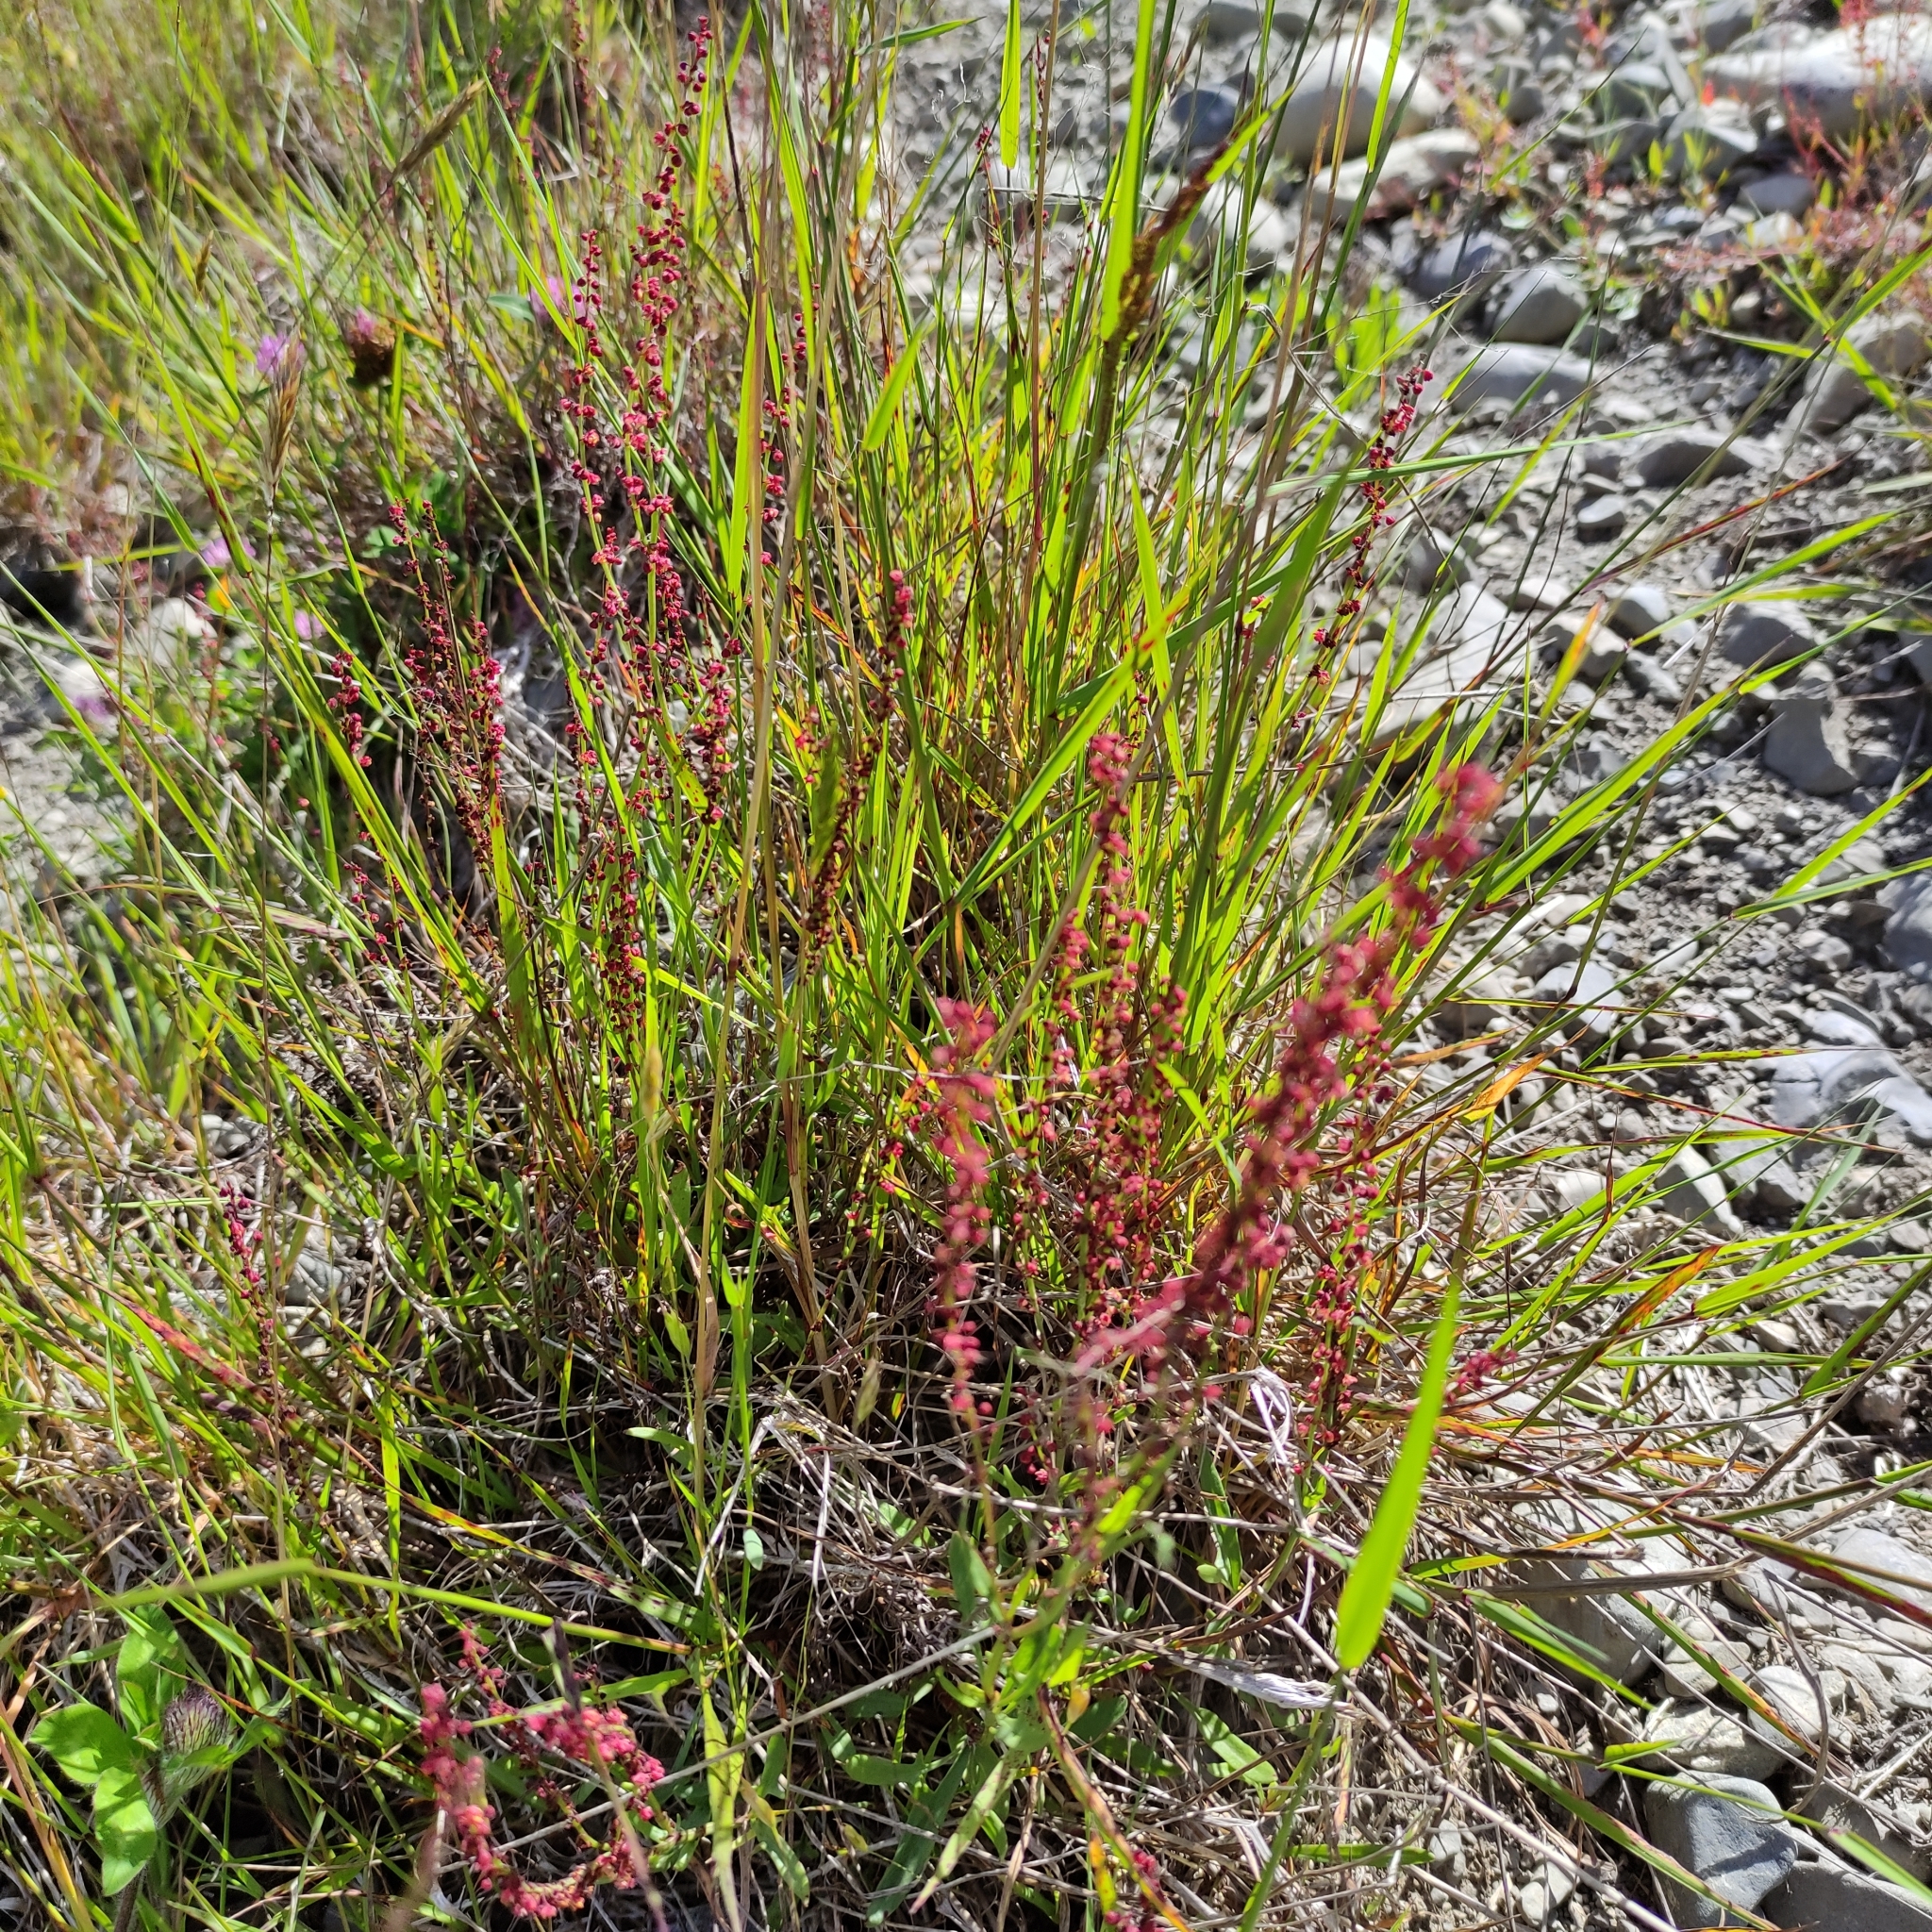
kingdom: Plantae
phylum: Tracheophyta
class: Magnoliopsida
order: Caryophyllales
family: Polygonaceae
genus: Rumex
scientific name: Rumex acetosella
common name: Common sheep sorrel
